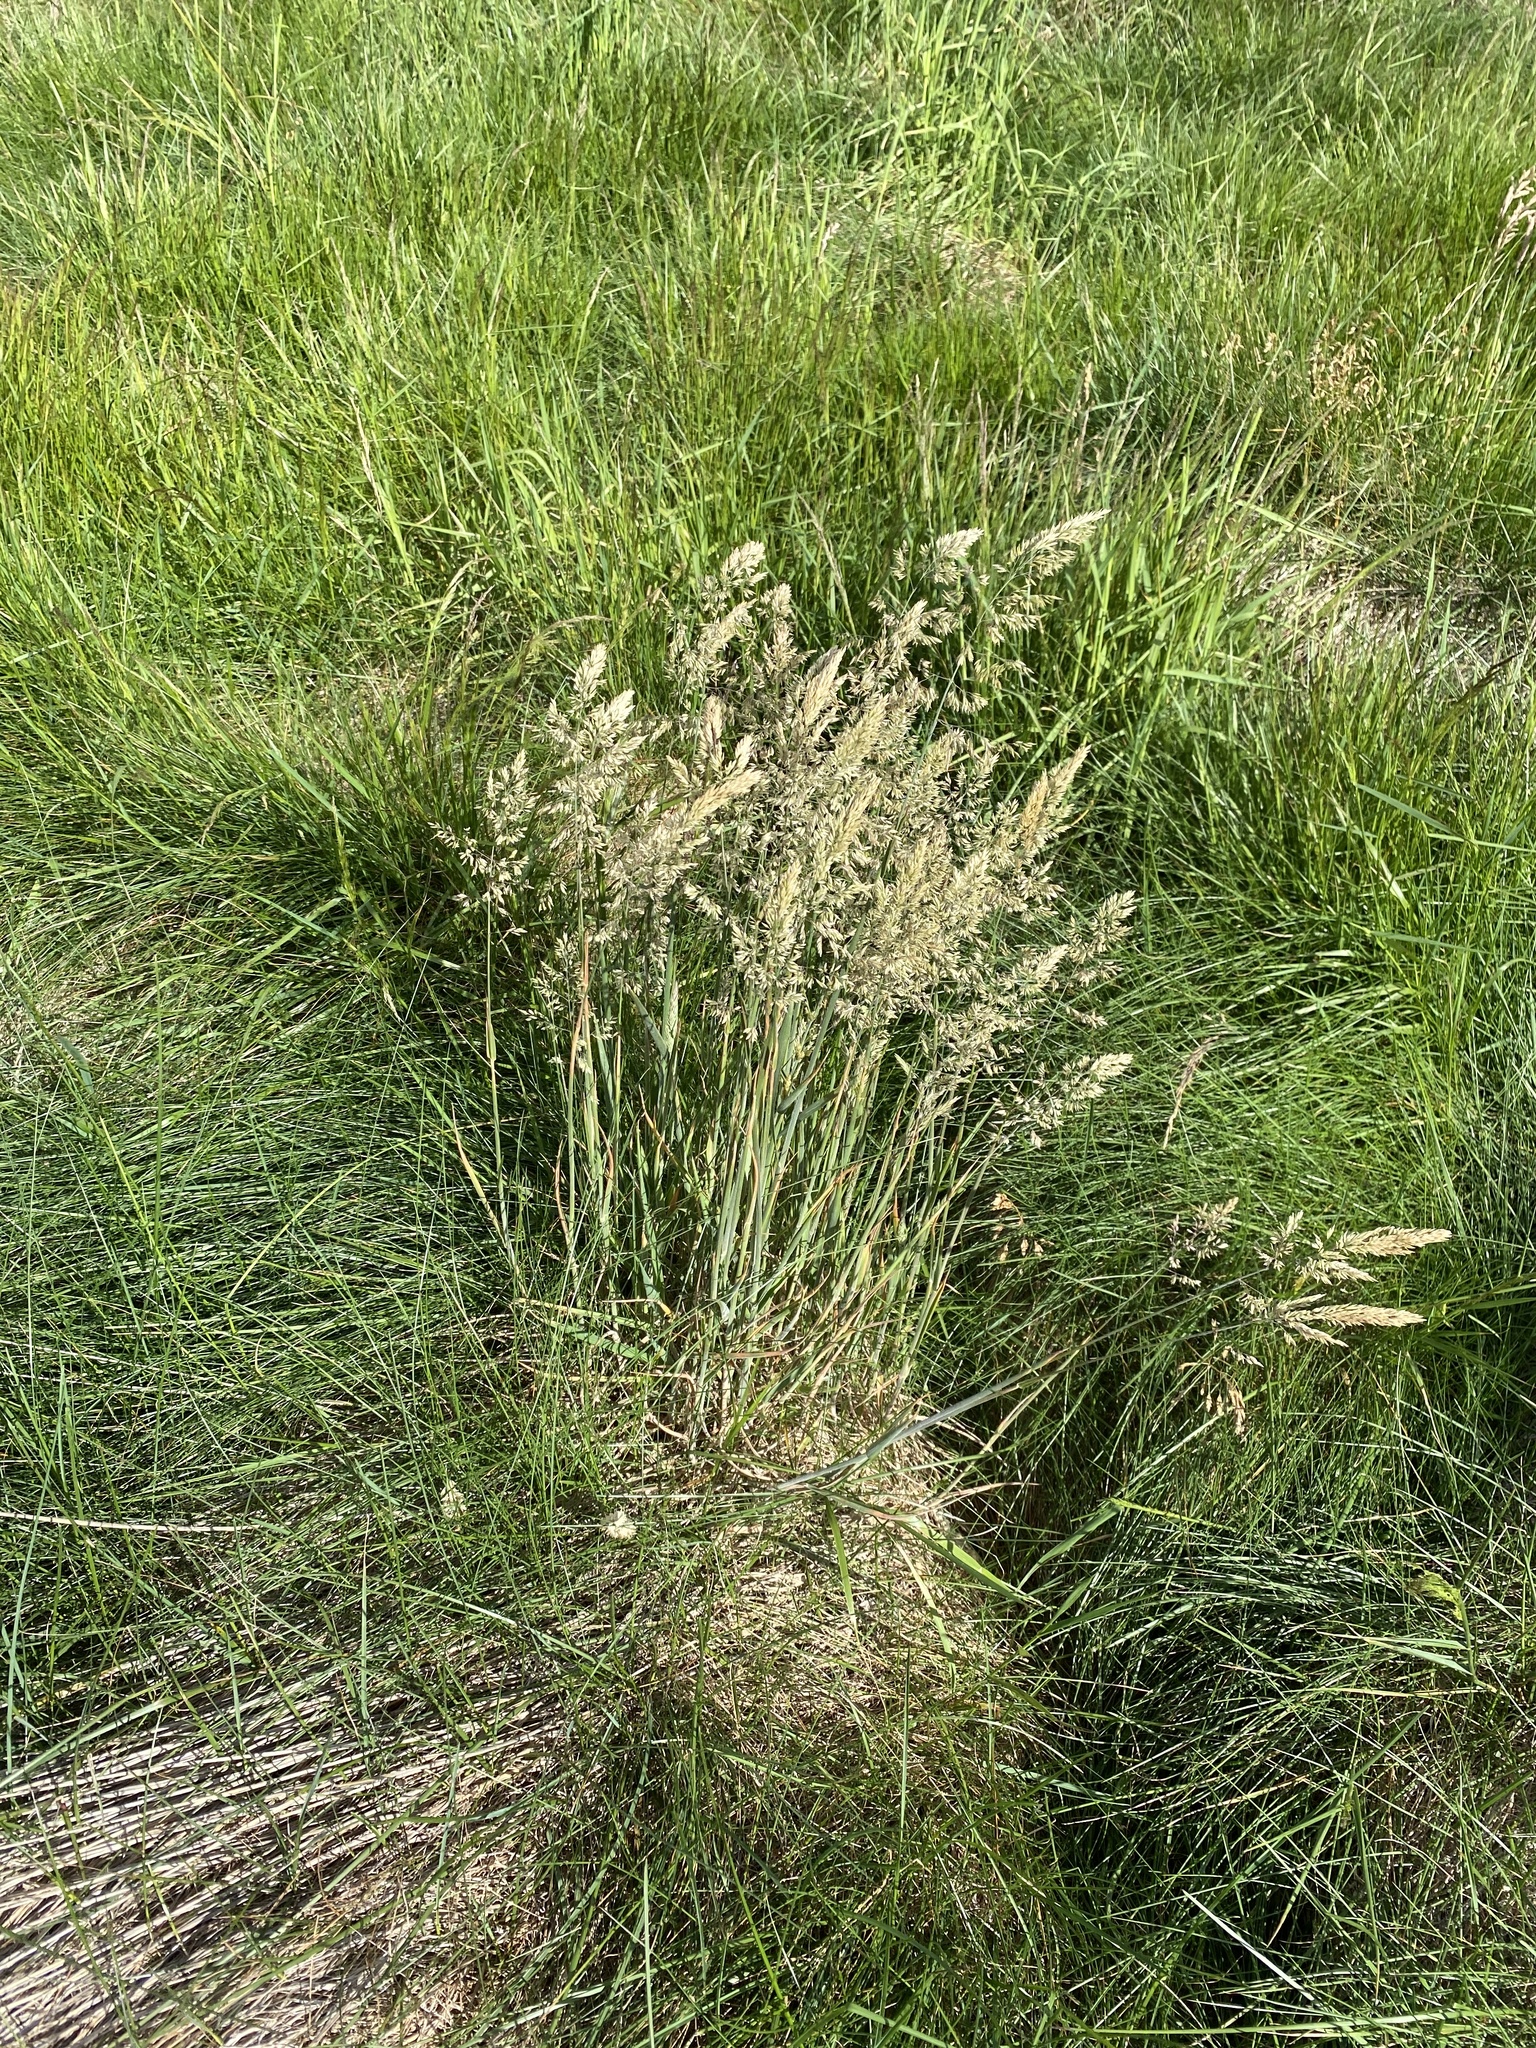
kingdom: Plantae
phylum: Tracheophyta
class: Liliopsida
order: Poales
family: Poaceae
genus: Holcus
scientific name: Holcus lanatus
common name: Yorkshire-fog
